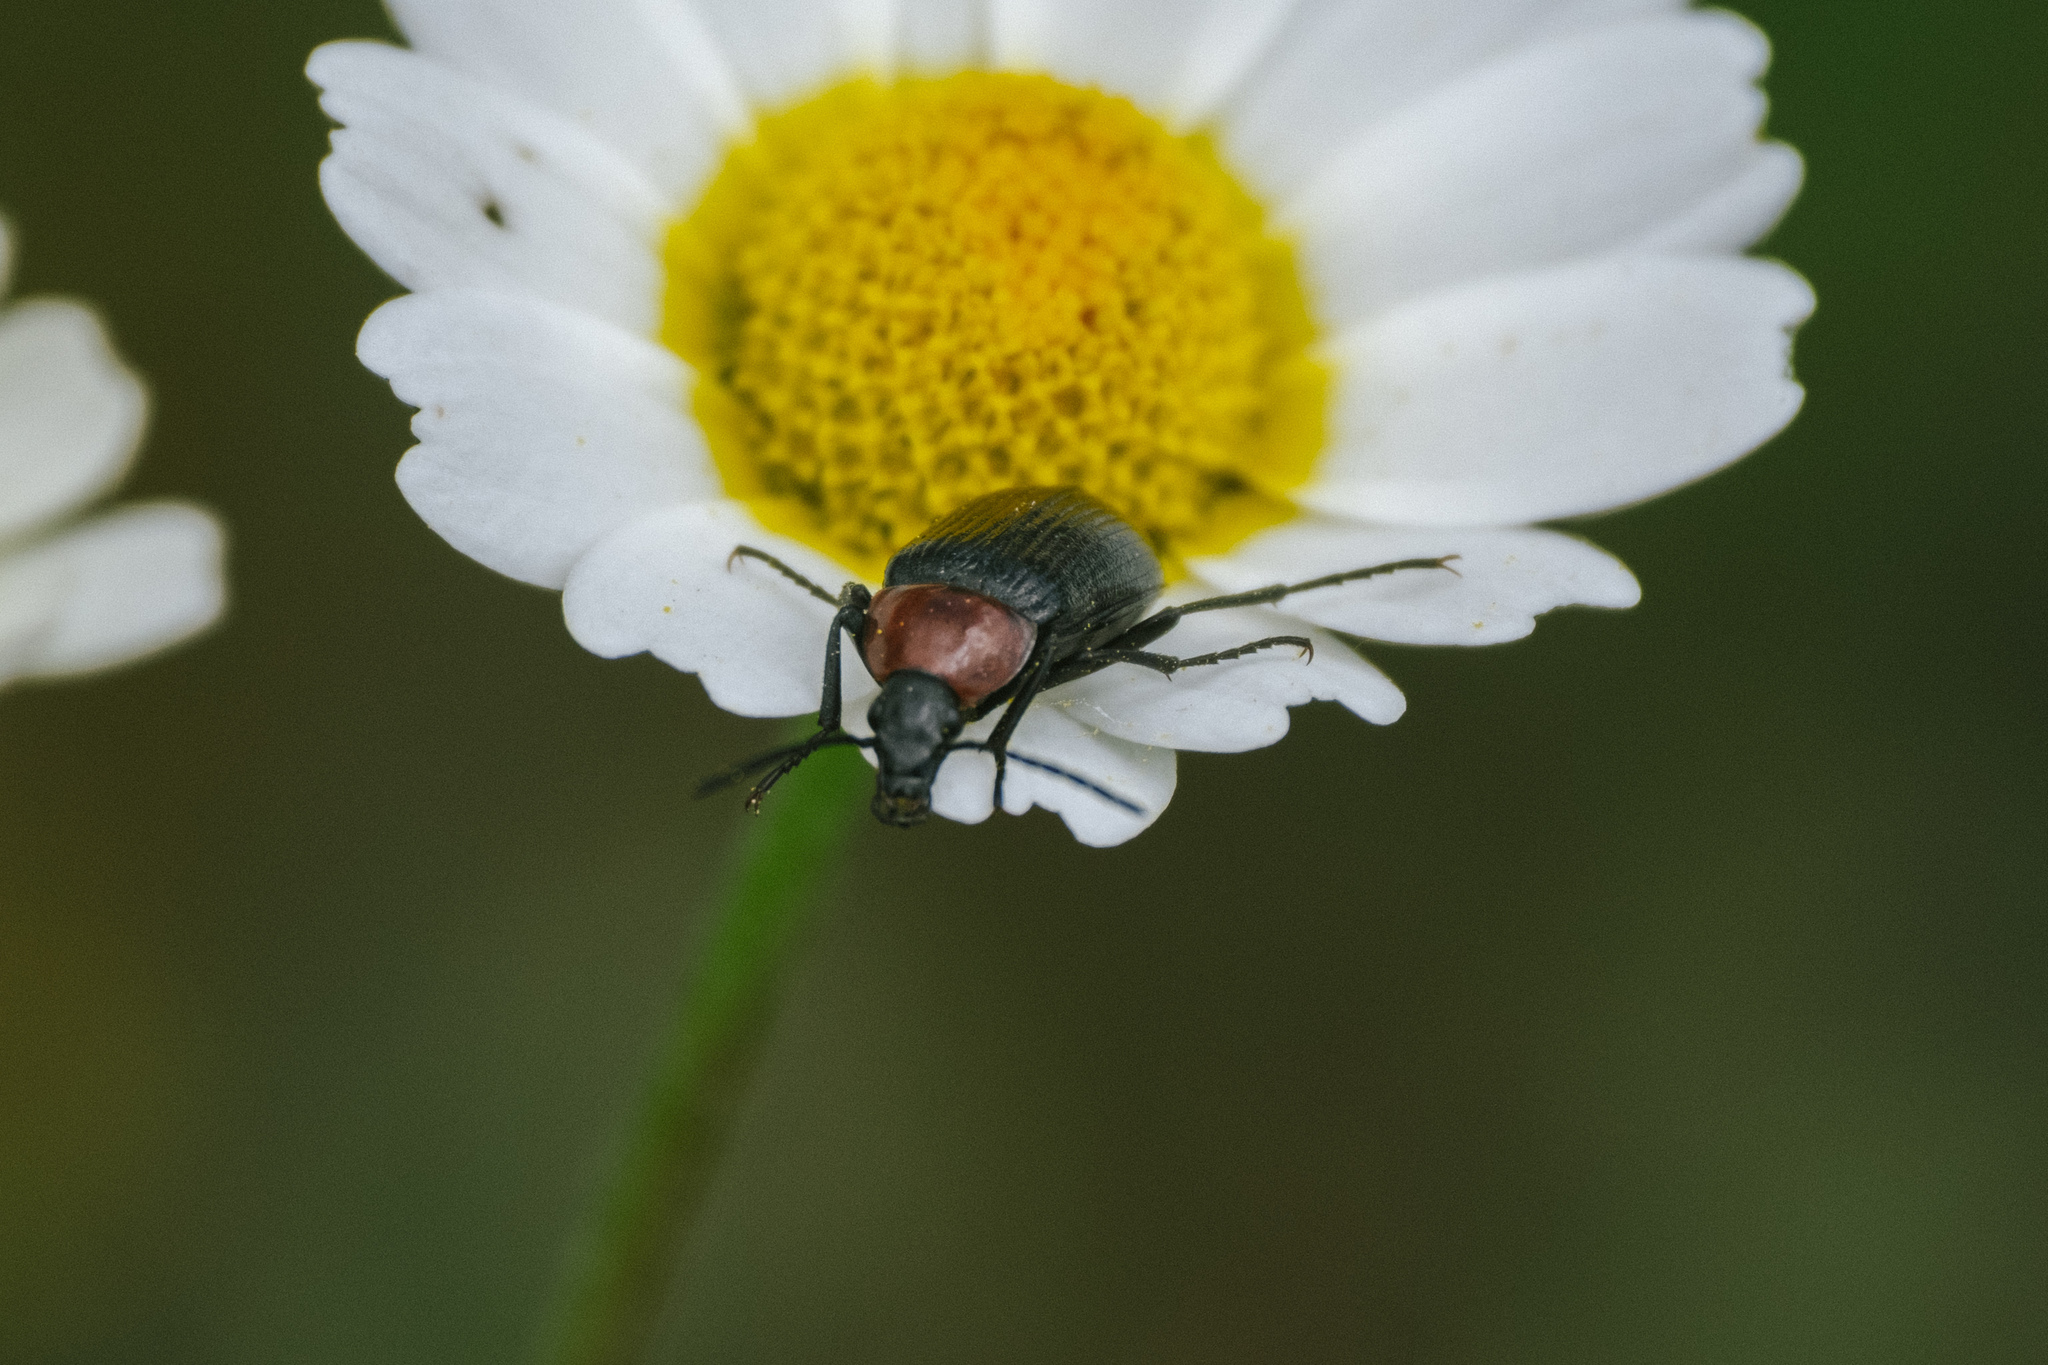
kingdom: Animalia
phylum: Arthropoda
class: Insecta
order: Coleoptera
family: Tenebrionidae
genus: Heliotaurus
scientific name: Heliotaurus ruficollis
